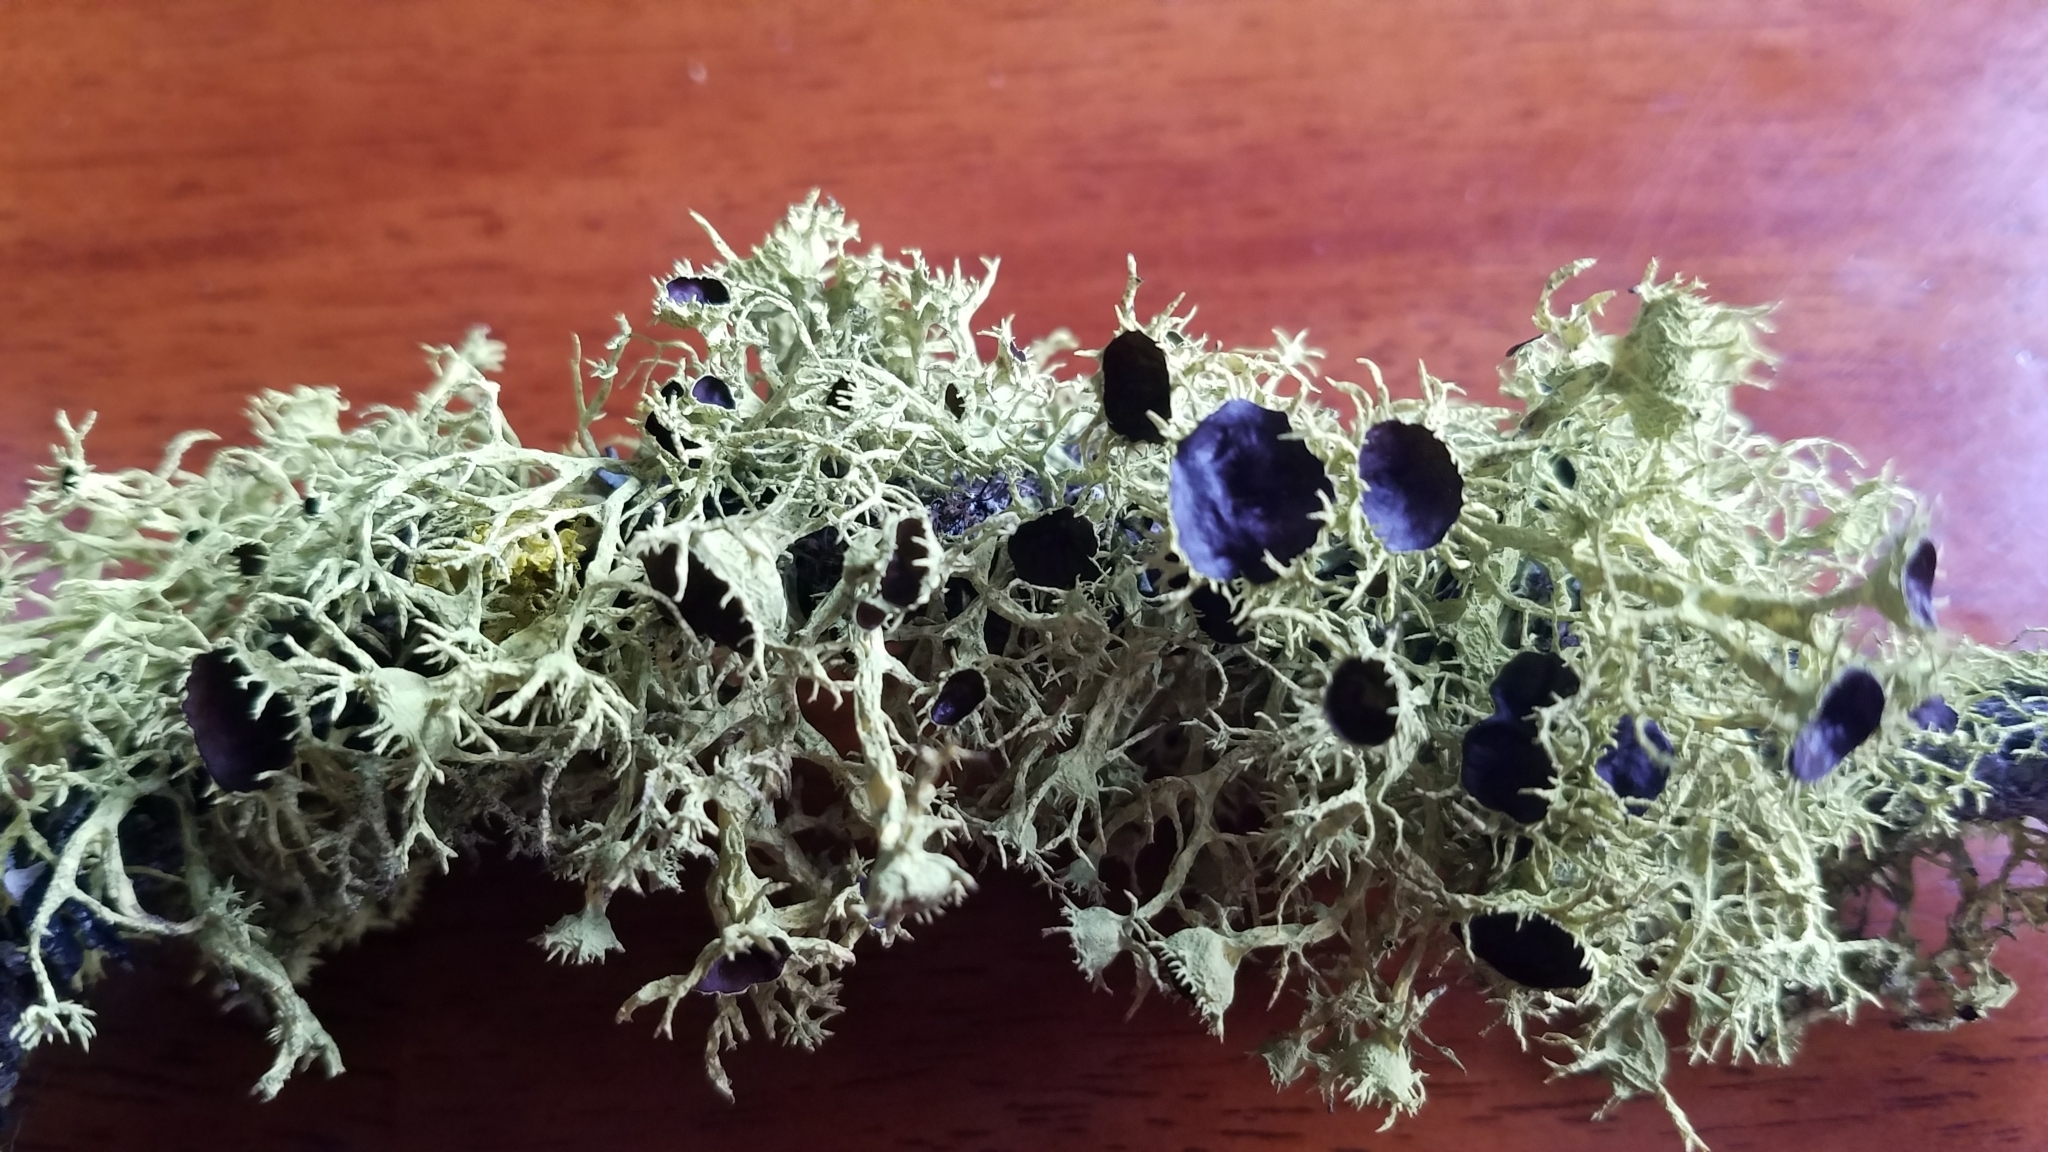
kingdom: Fungi
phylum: Ascomycota
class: Lecanoromycetes
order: Lecanorales
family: Parmeliaceae
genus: Letharia
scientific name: Letharia columbiana
